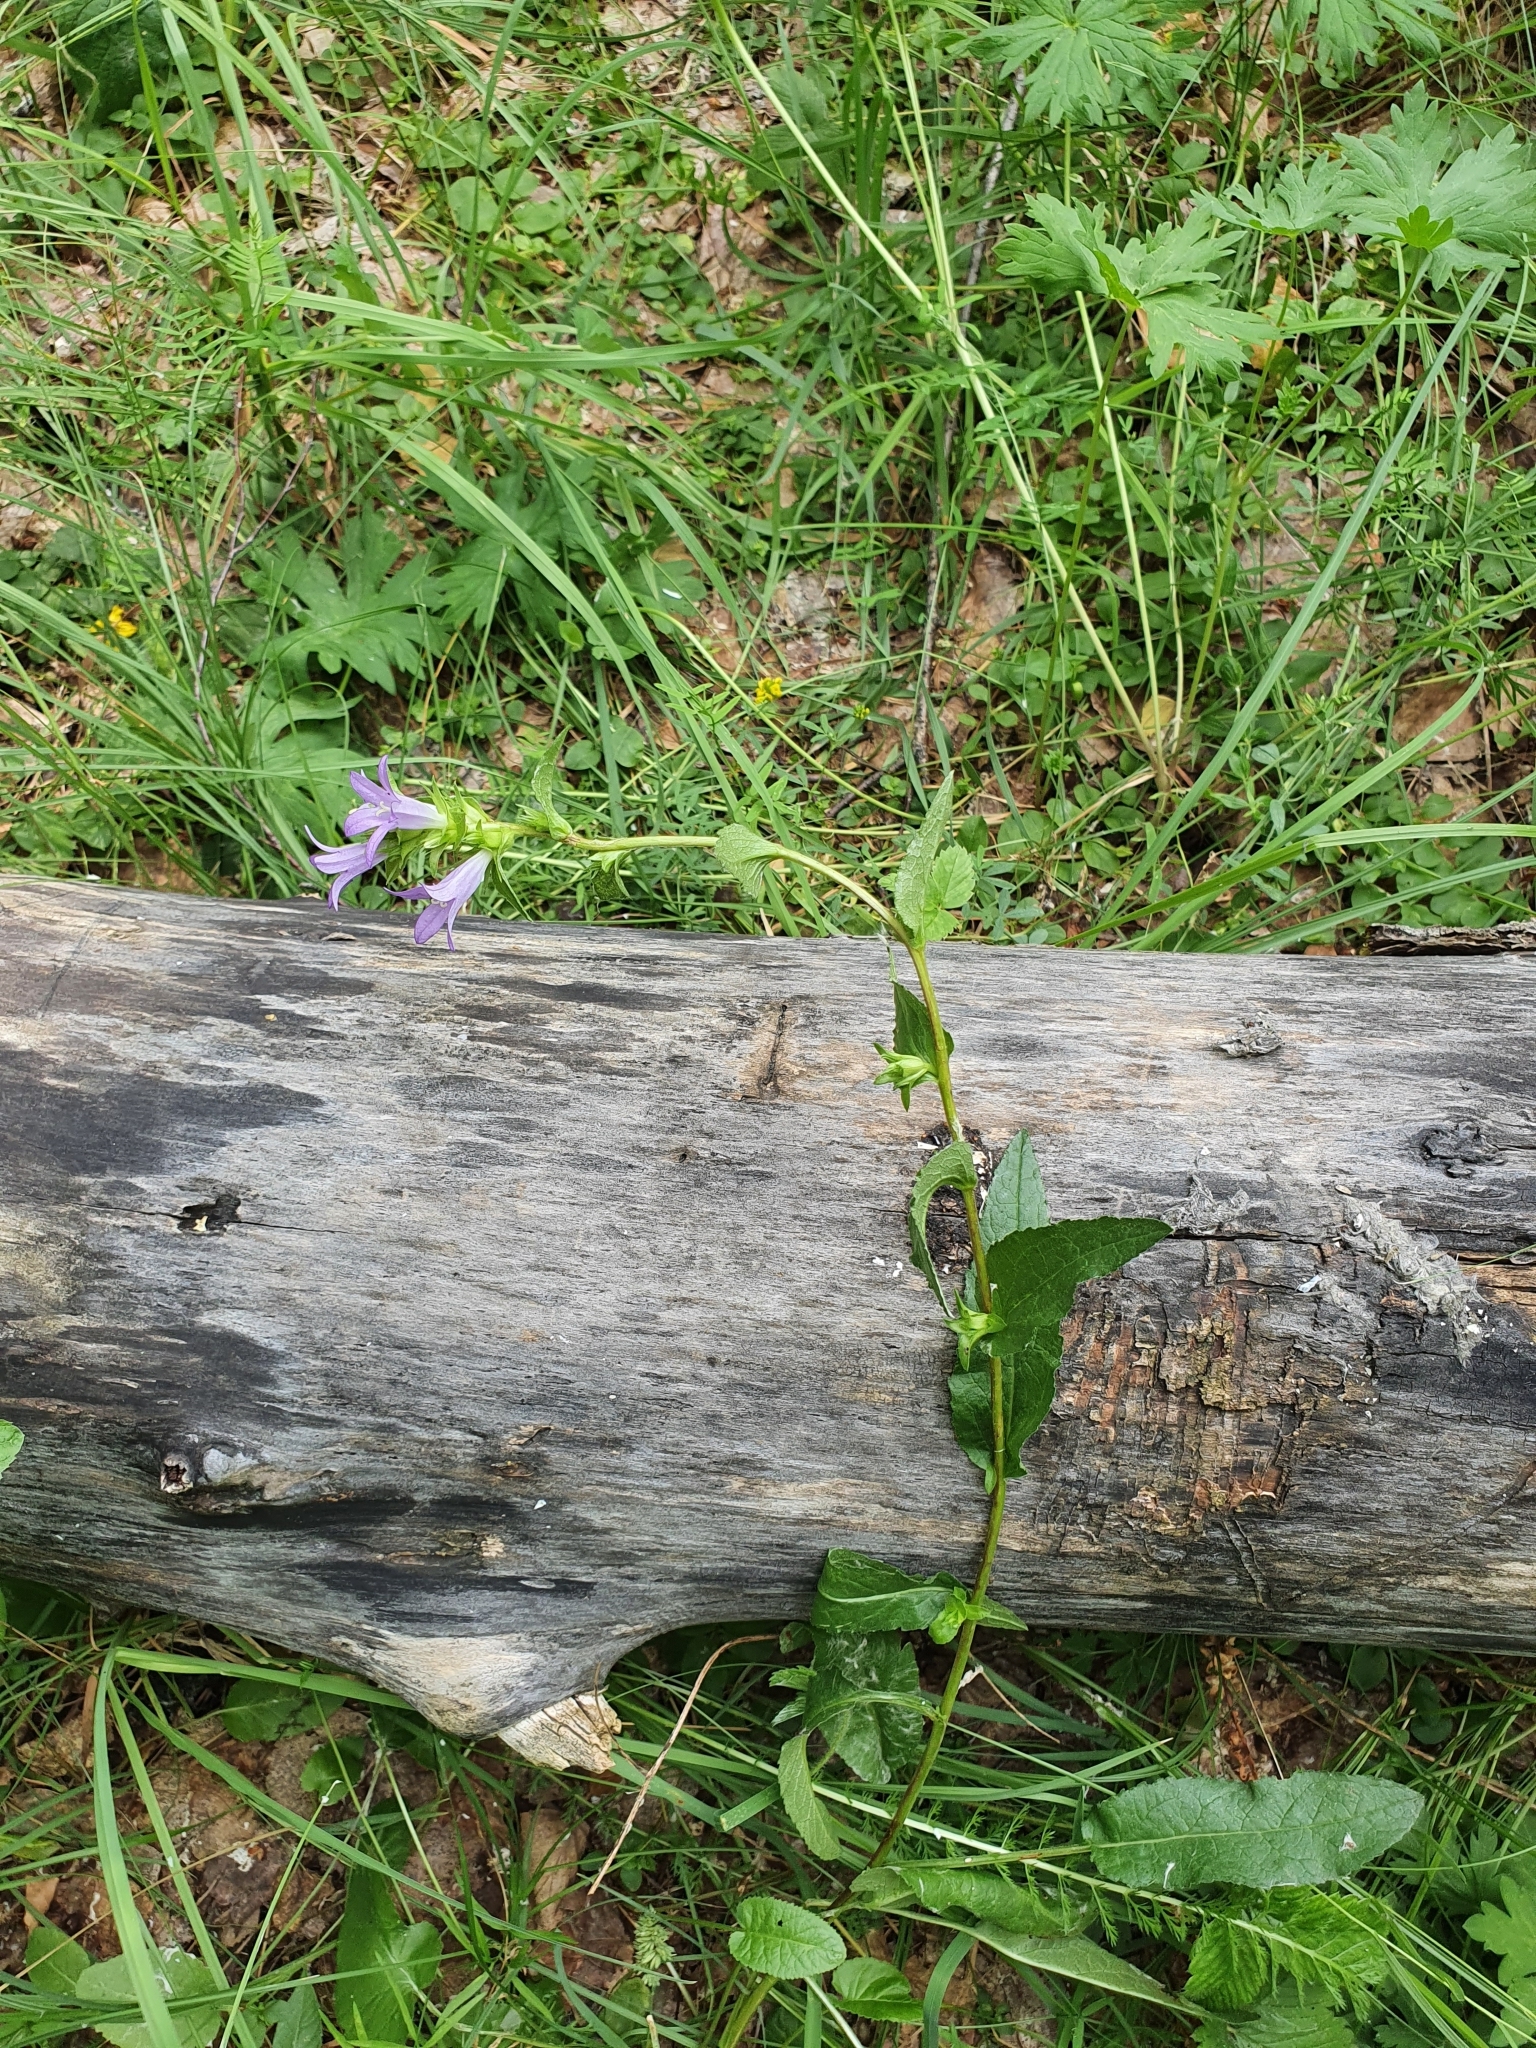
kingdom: Plantae
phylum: Tracheophyta
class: Magnoliopsida
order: Asterales
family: Campanulaceae
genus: Campanula
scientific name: Campanula glomerata
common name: Clustered bellflower
